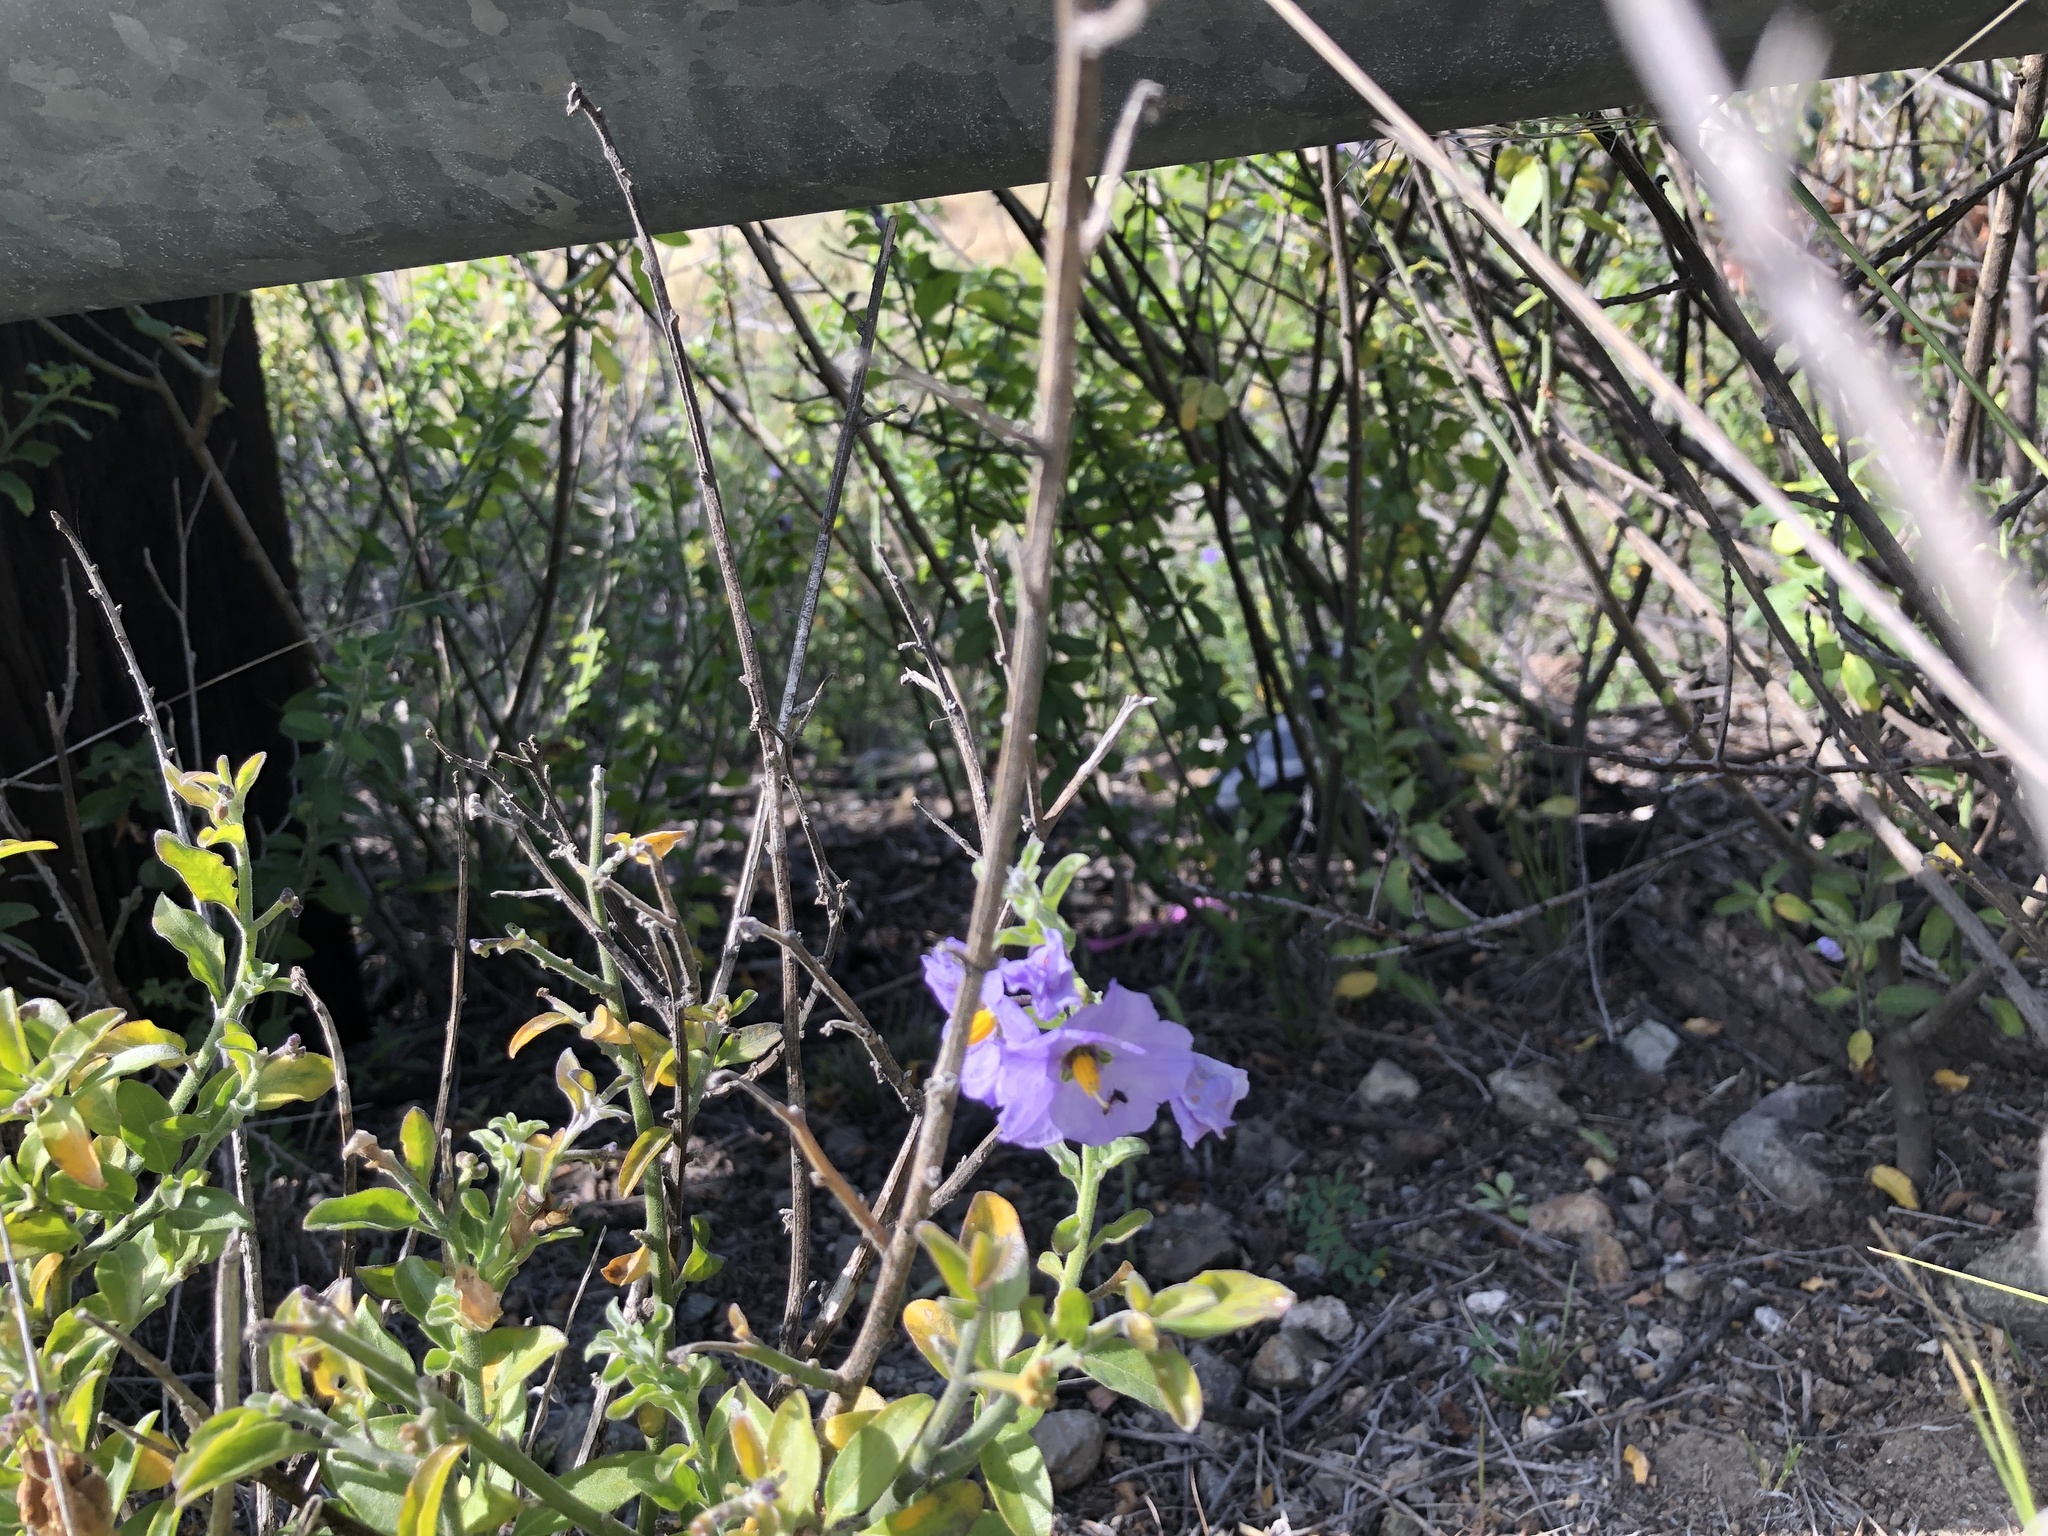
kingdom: Plantae
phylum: Tracheophyta
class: Magnoliopsida
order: Solanales
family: Solanaceae
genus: Solanum
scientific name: Solanum umbelliferum
